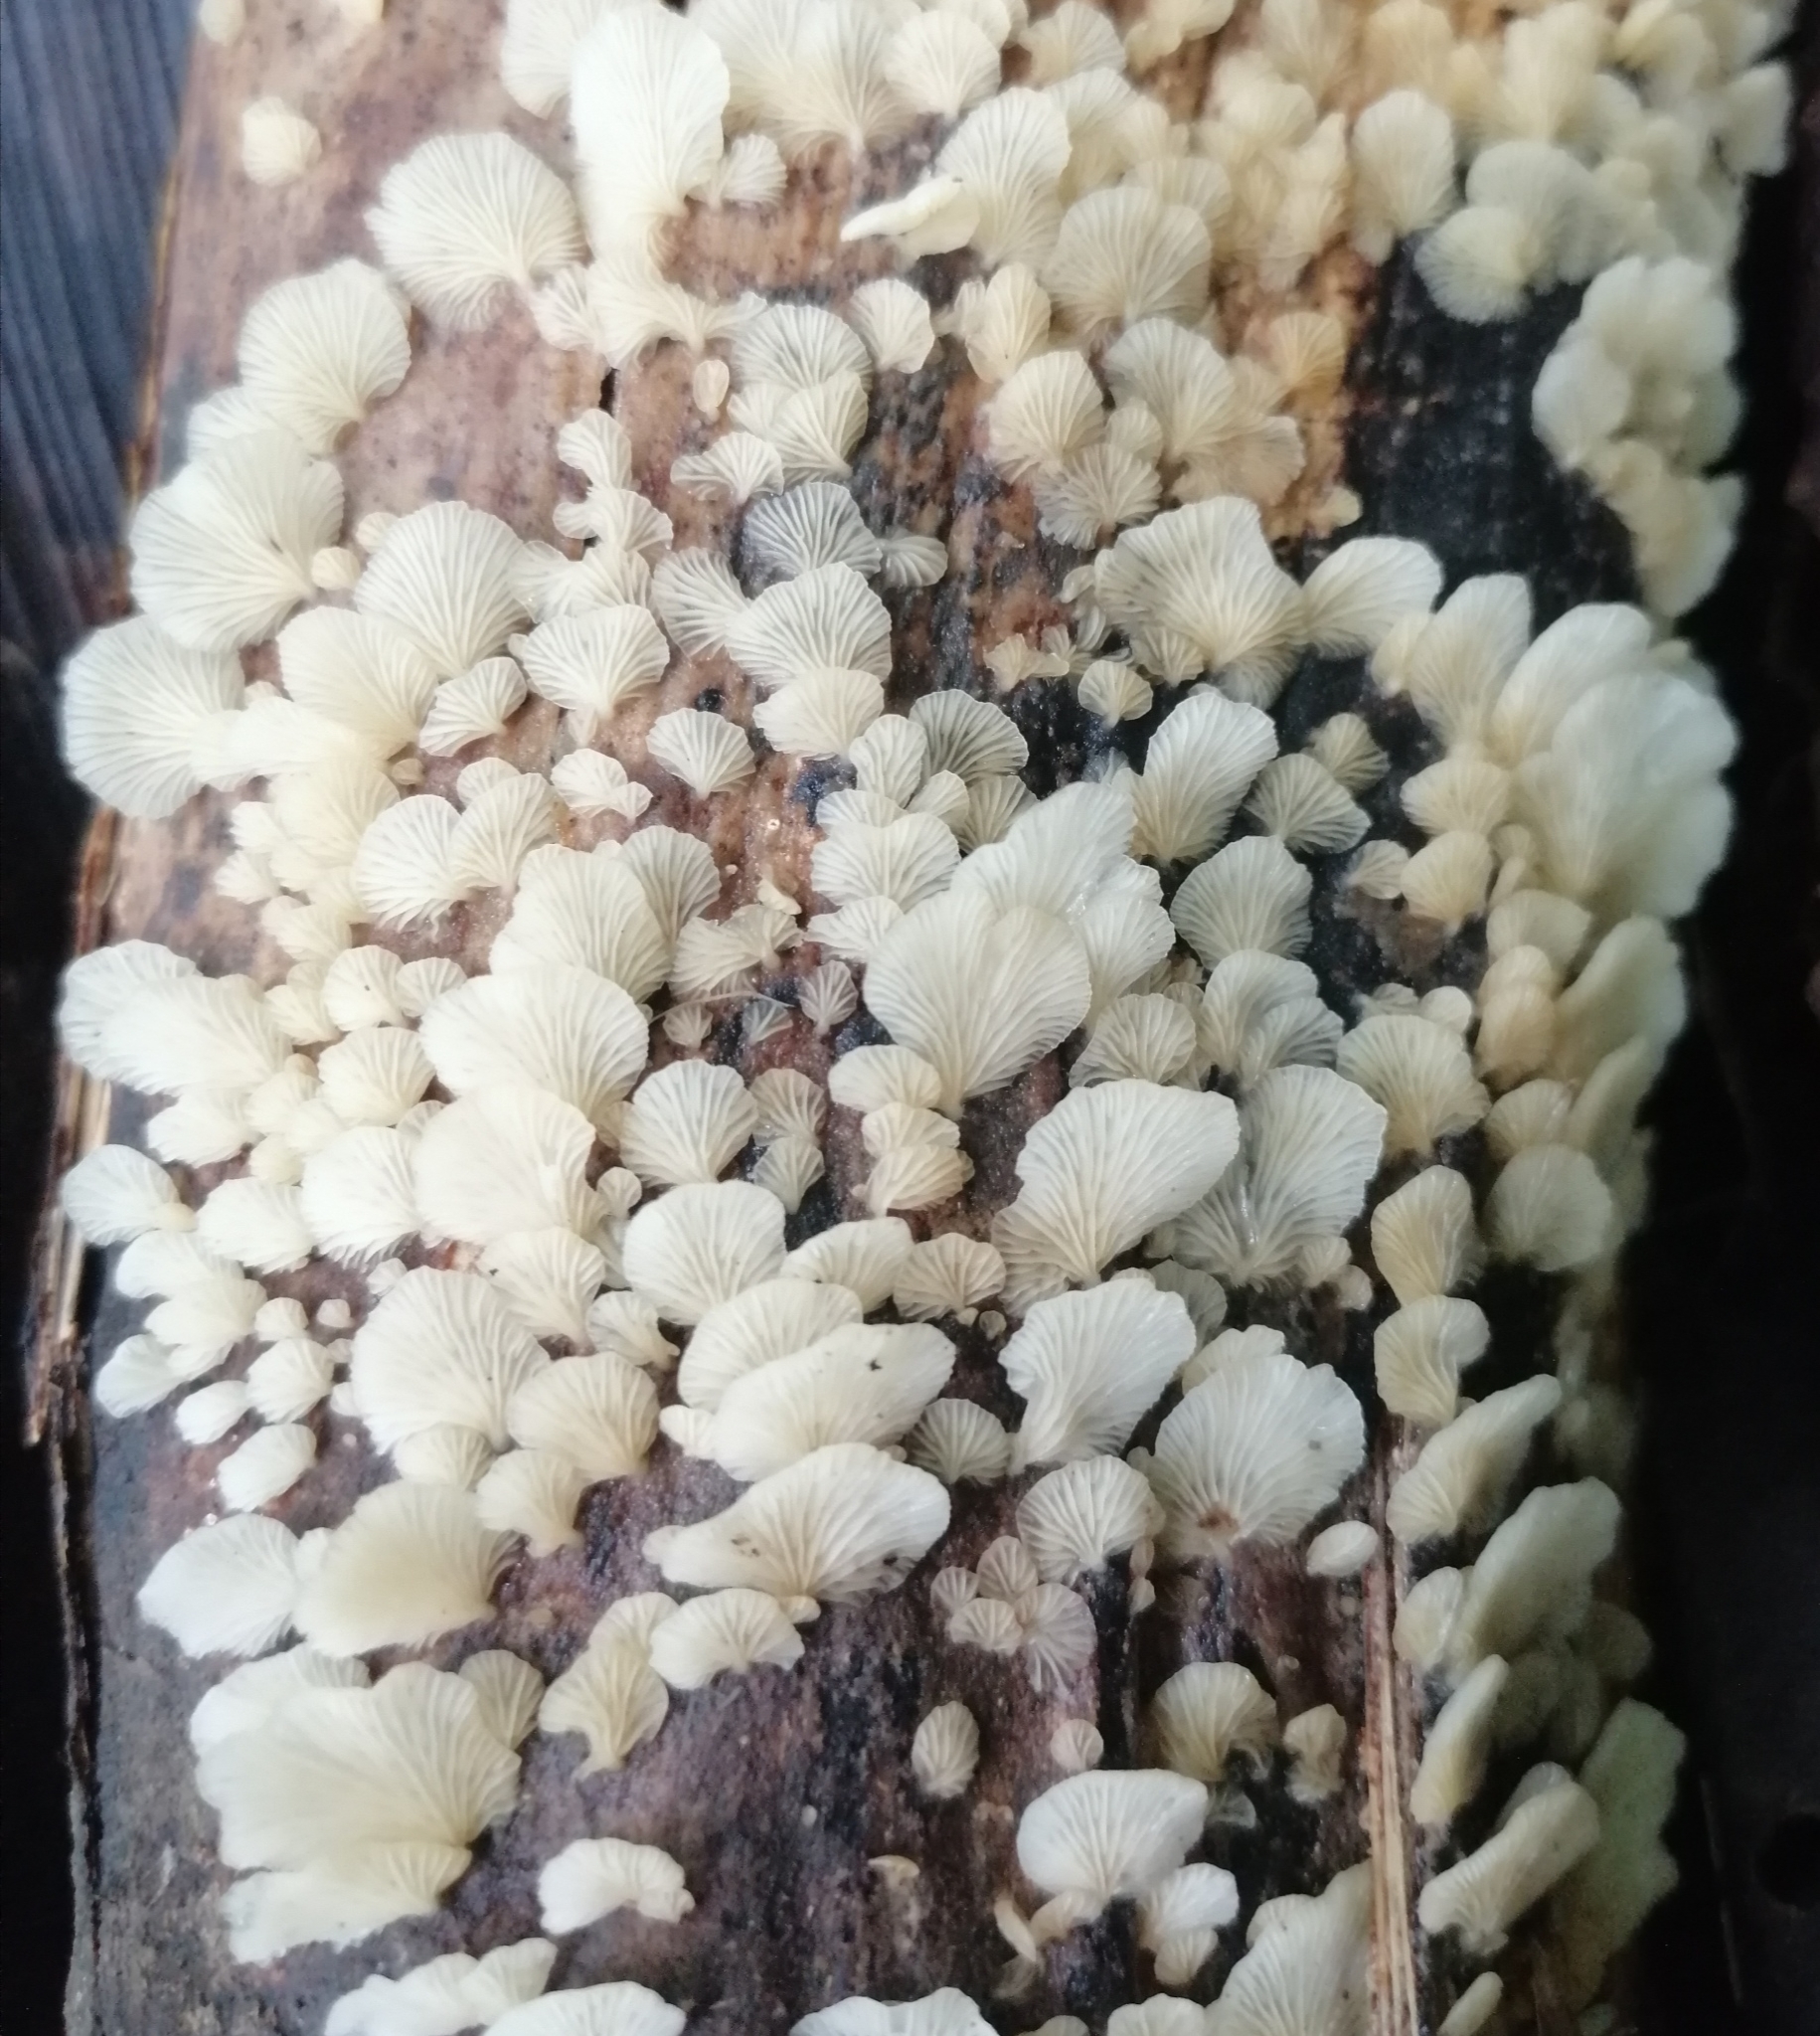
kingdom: Fungi
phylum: Basidiomycota
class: Agaricomycetes
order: Polyporales
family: Polyporaceae
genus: Lentinus
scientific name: Lentinus copulatus
